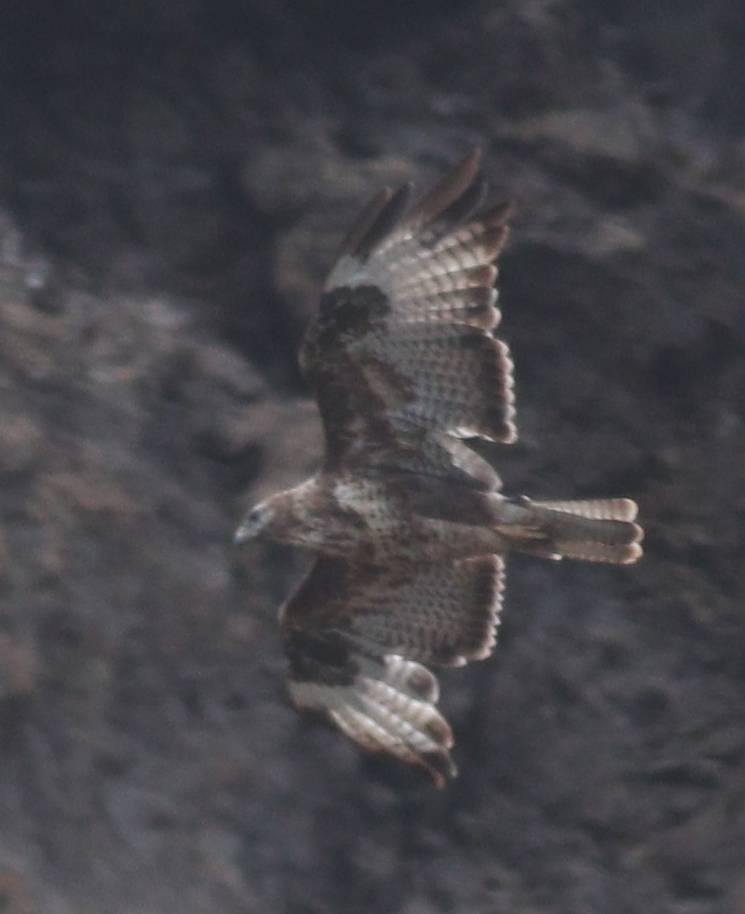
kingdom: Animalia
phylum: Chordata
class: Aves
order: Accipitriformes
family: Accipitridae
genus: Buteo
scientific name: Buteo buteo
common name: Common buzzard
